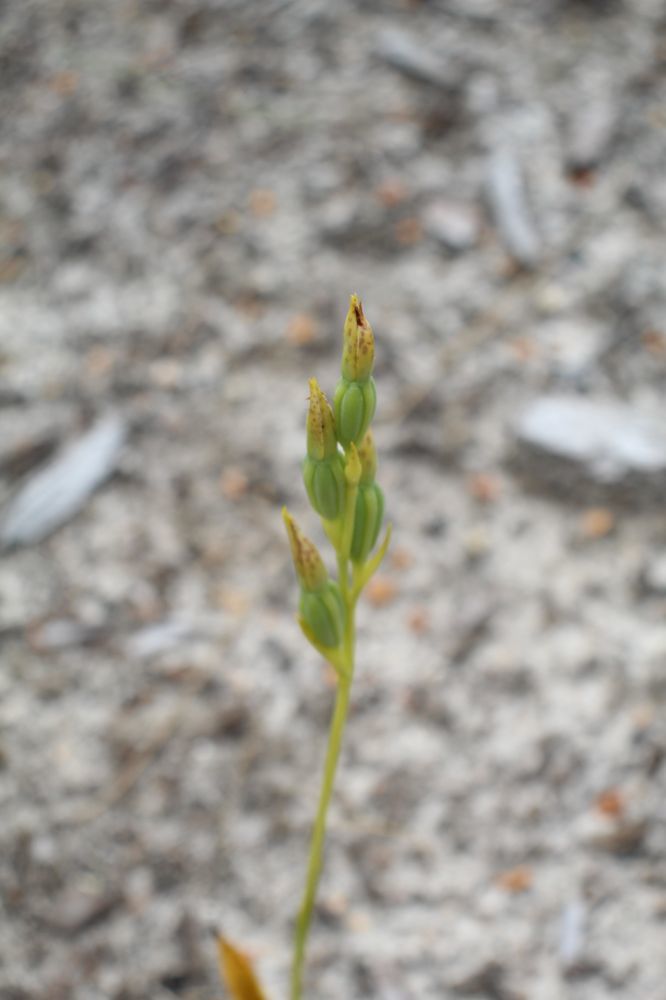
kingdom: Plantae
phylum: Tracheophyta
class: Liliopsida
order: Asparagales
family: Orchidaceae
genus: Thelymitra
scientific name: Thelymitra benthamiana
